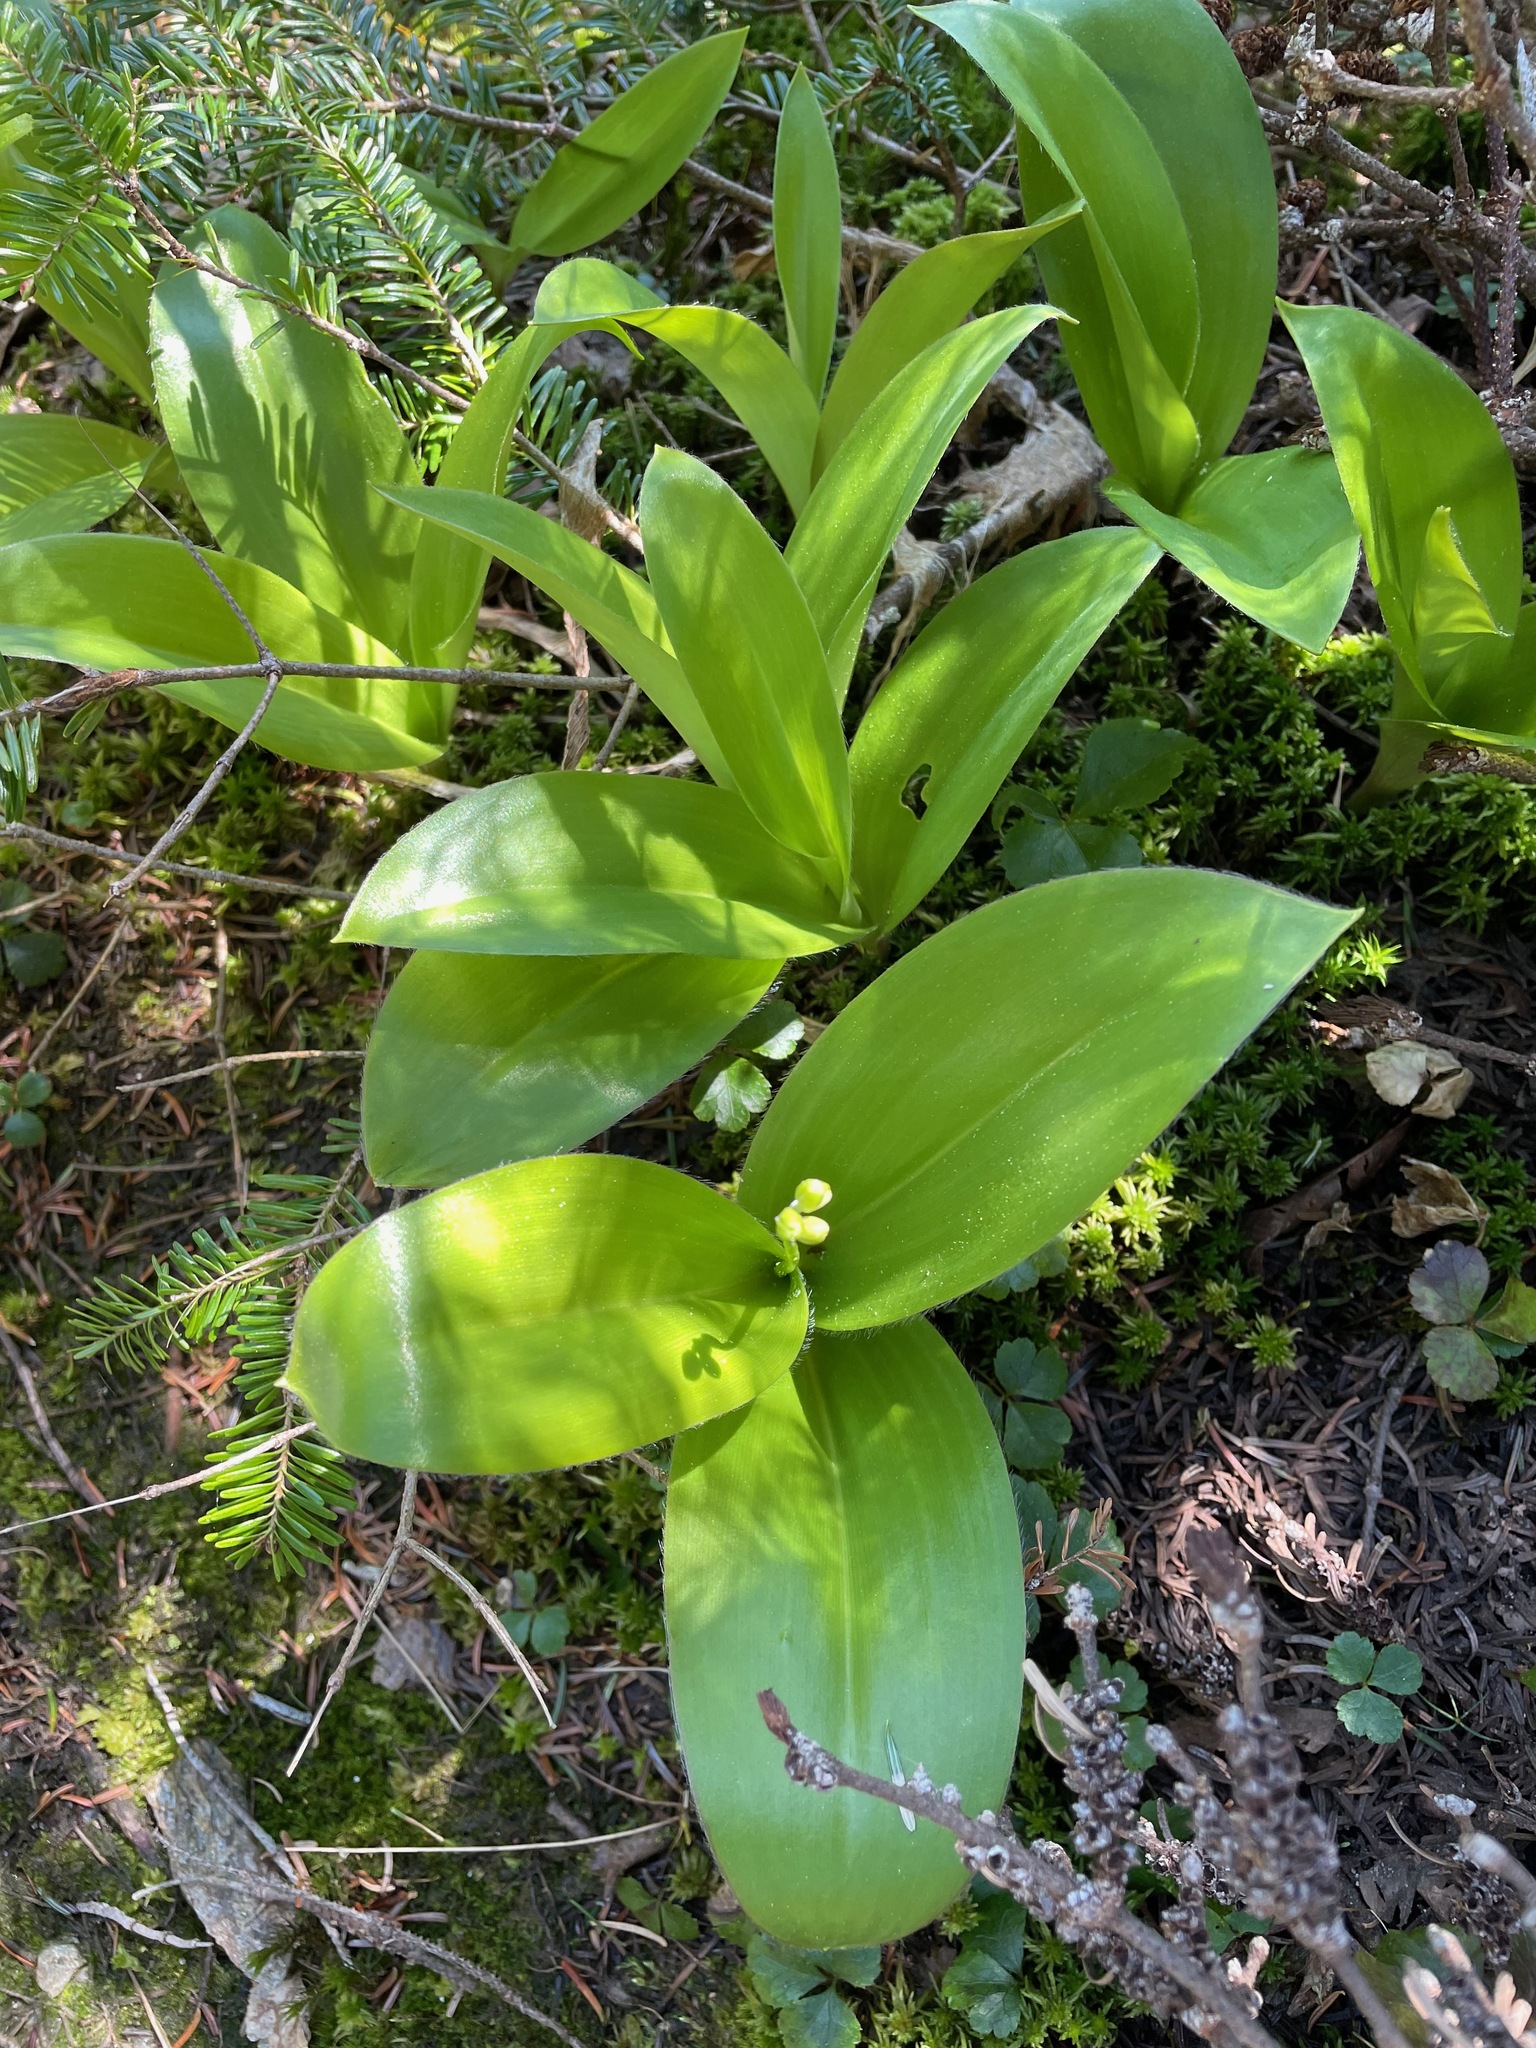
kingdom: Plantae
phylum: Tracheophyta
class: Liliopsida
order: Liliales
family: Liliaceae
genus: Clintonia
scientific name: Clintonia borealis
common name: Yellow clintonia
